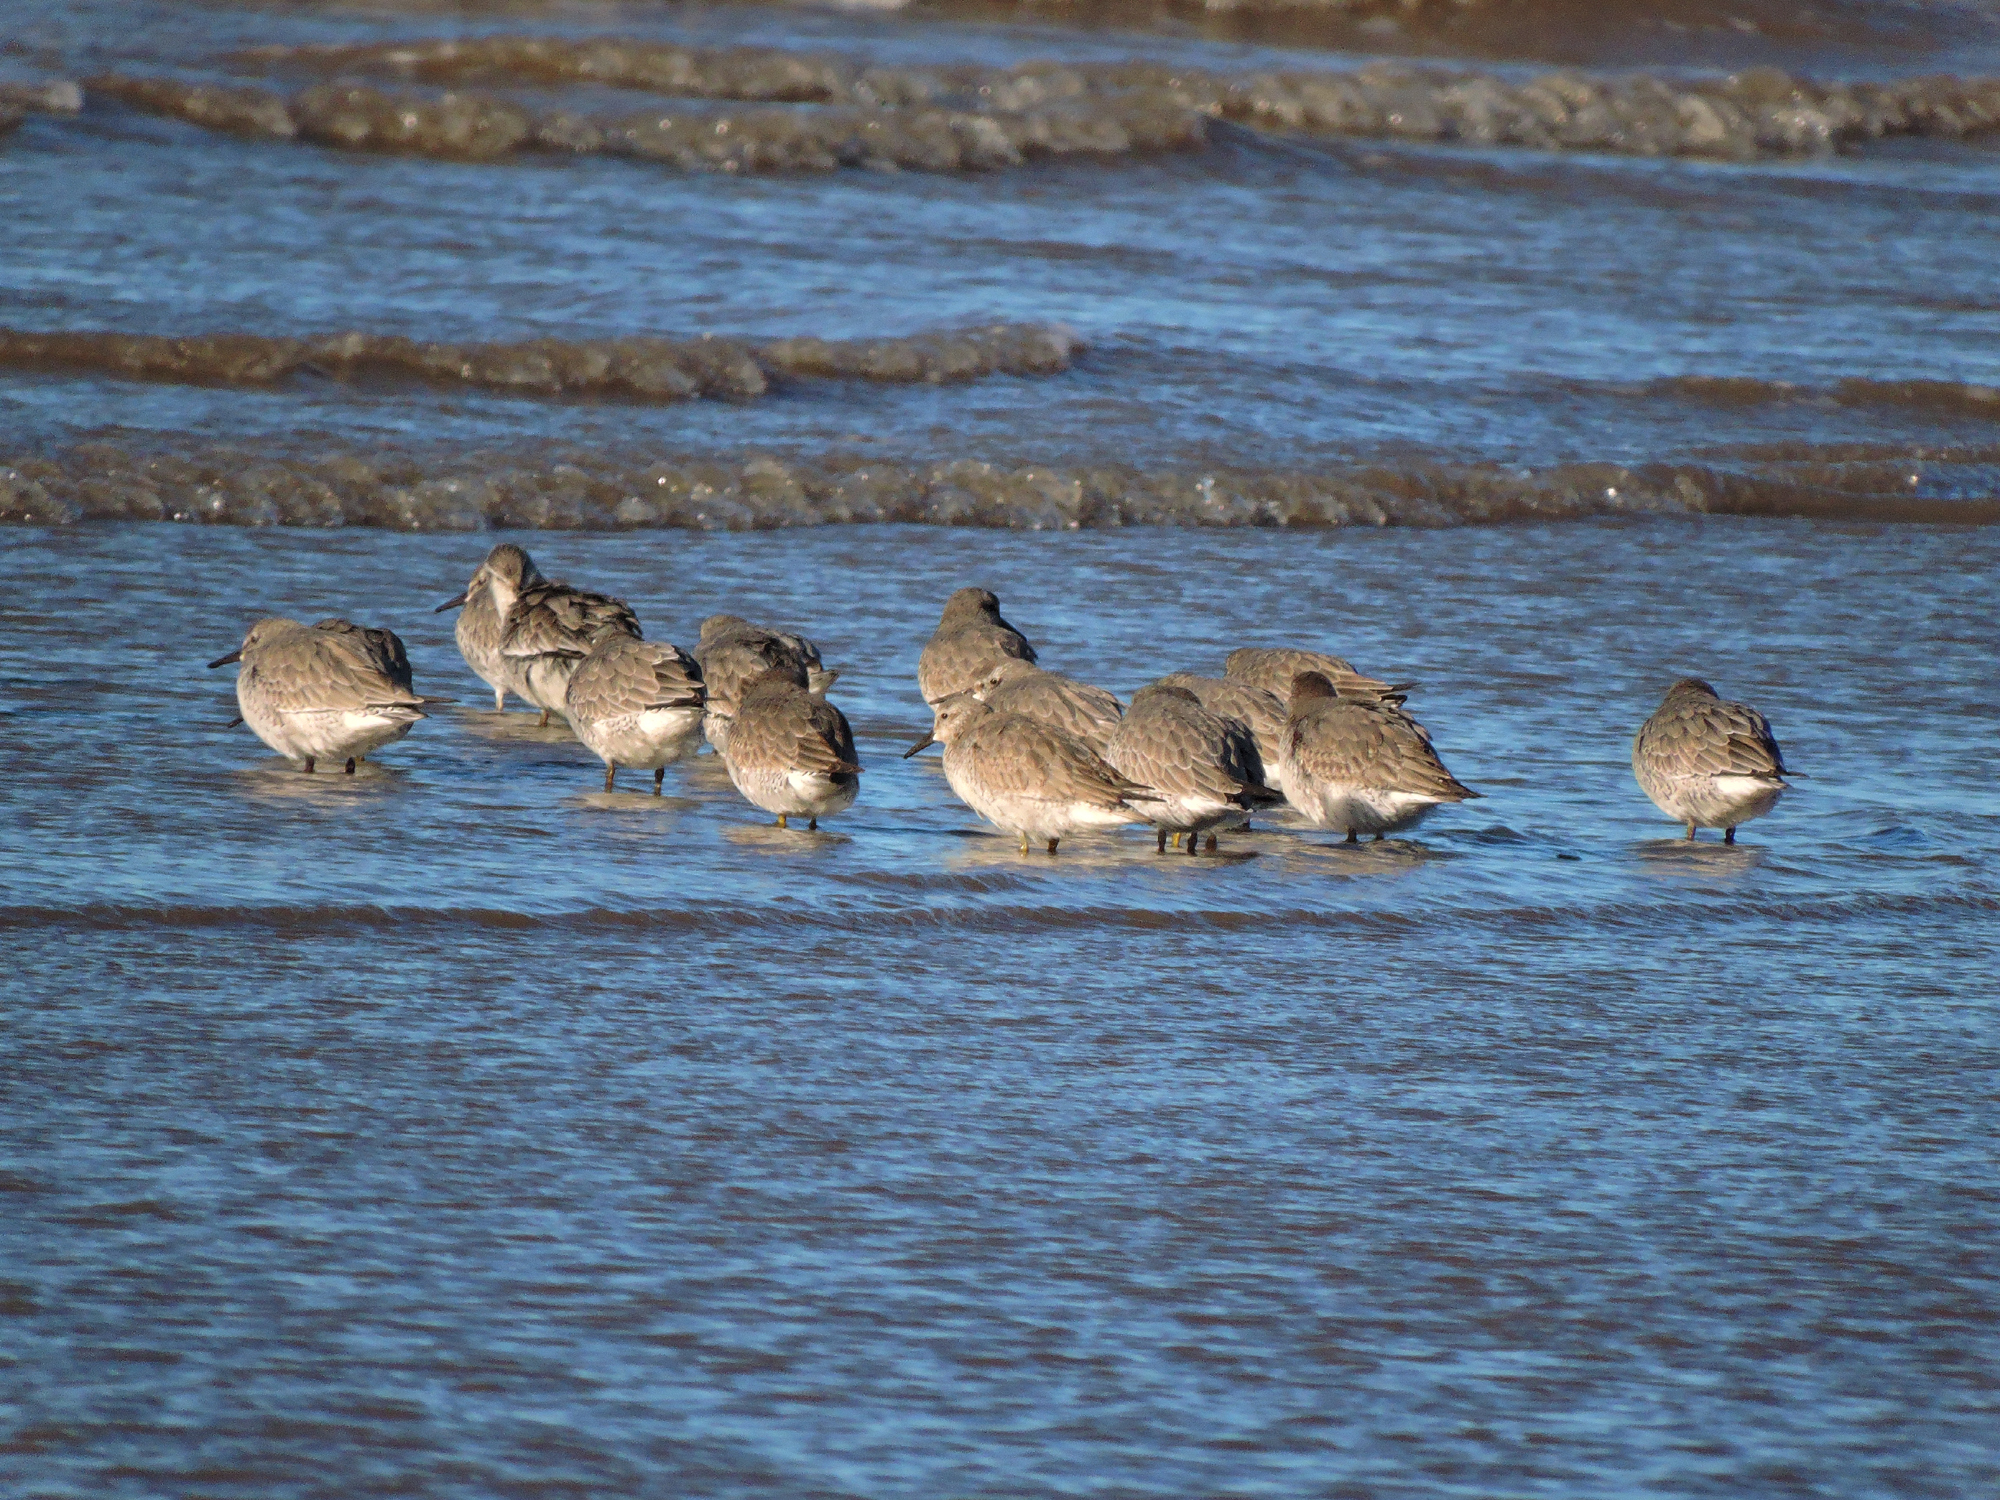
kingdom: Animalia
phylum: Chordata
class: Aves
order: Charadriiformes
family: Scolopacidae
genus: Calidris
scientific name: Calidris canutus
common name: Red knot
